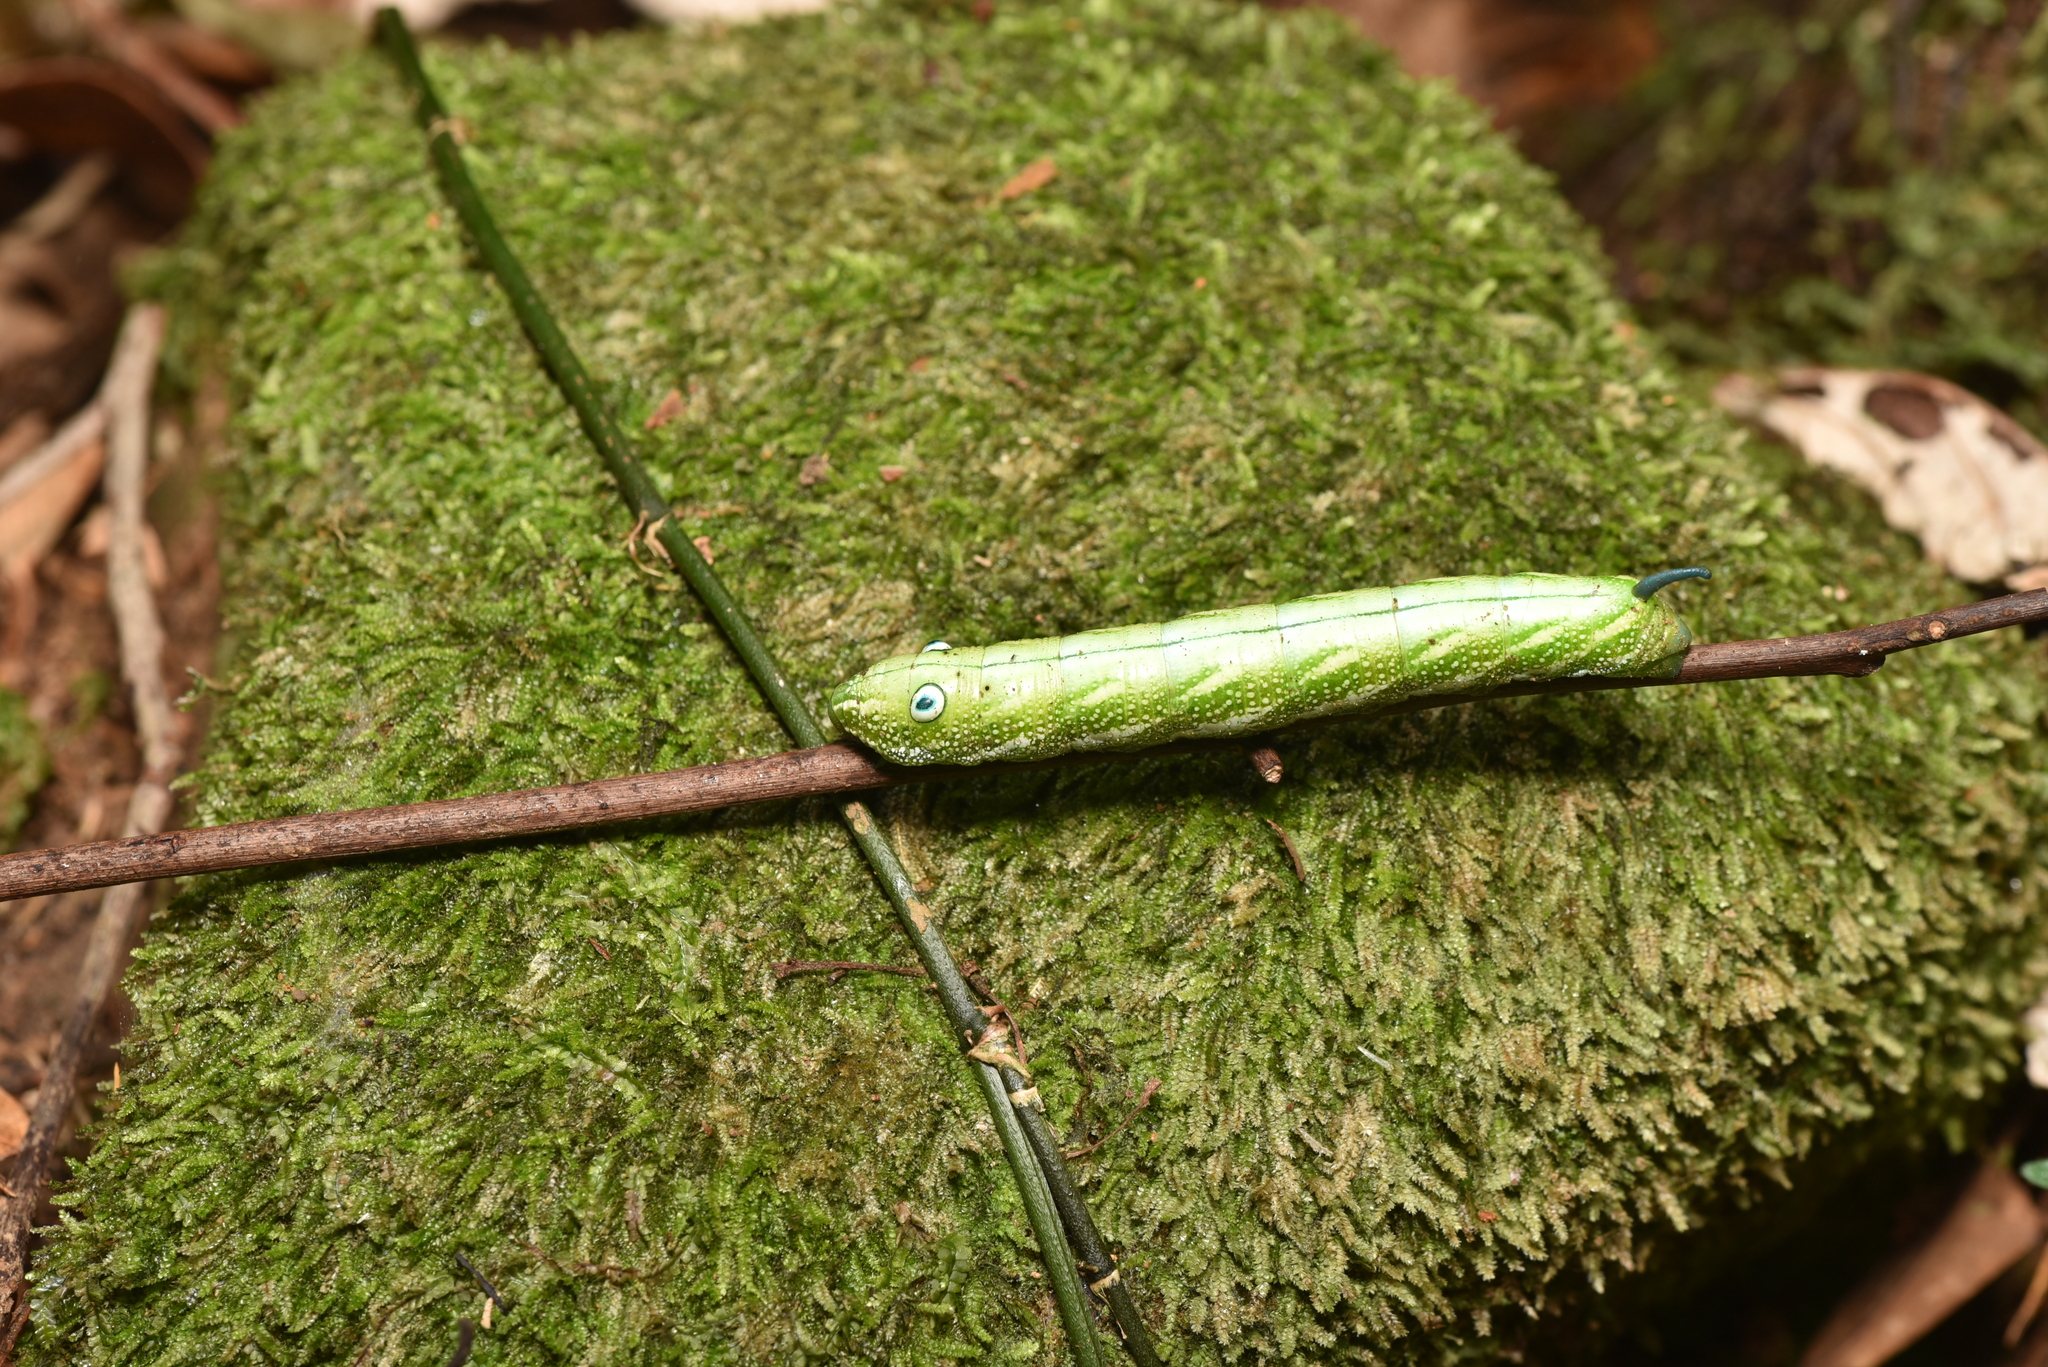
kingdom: Animalia
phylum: Arthropoda
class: Insecta
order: Lepidoptera
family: Sphingidae
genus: Rhagastis
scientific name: Rhagastis binoculata
